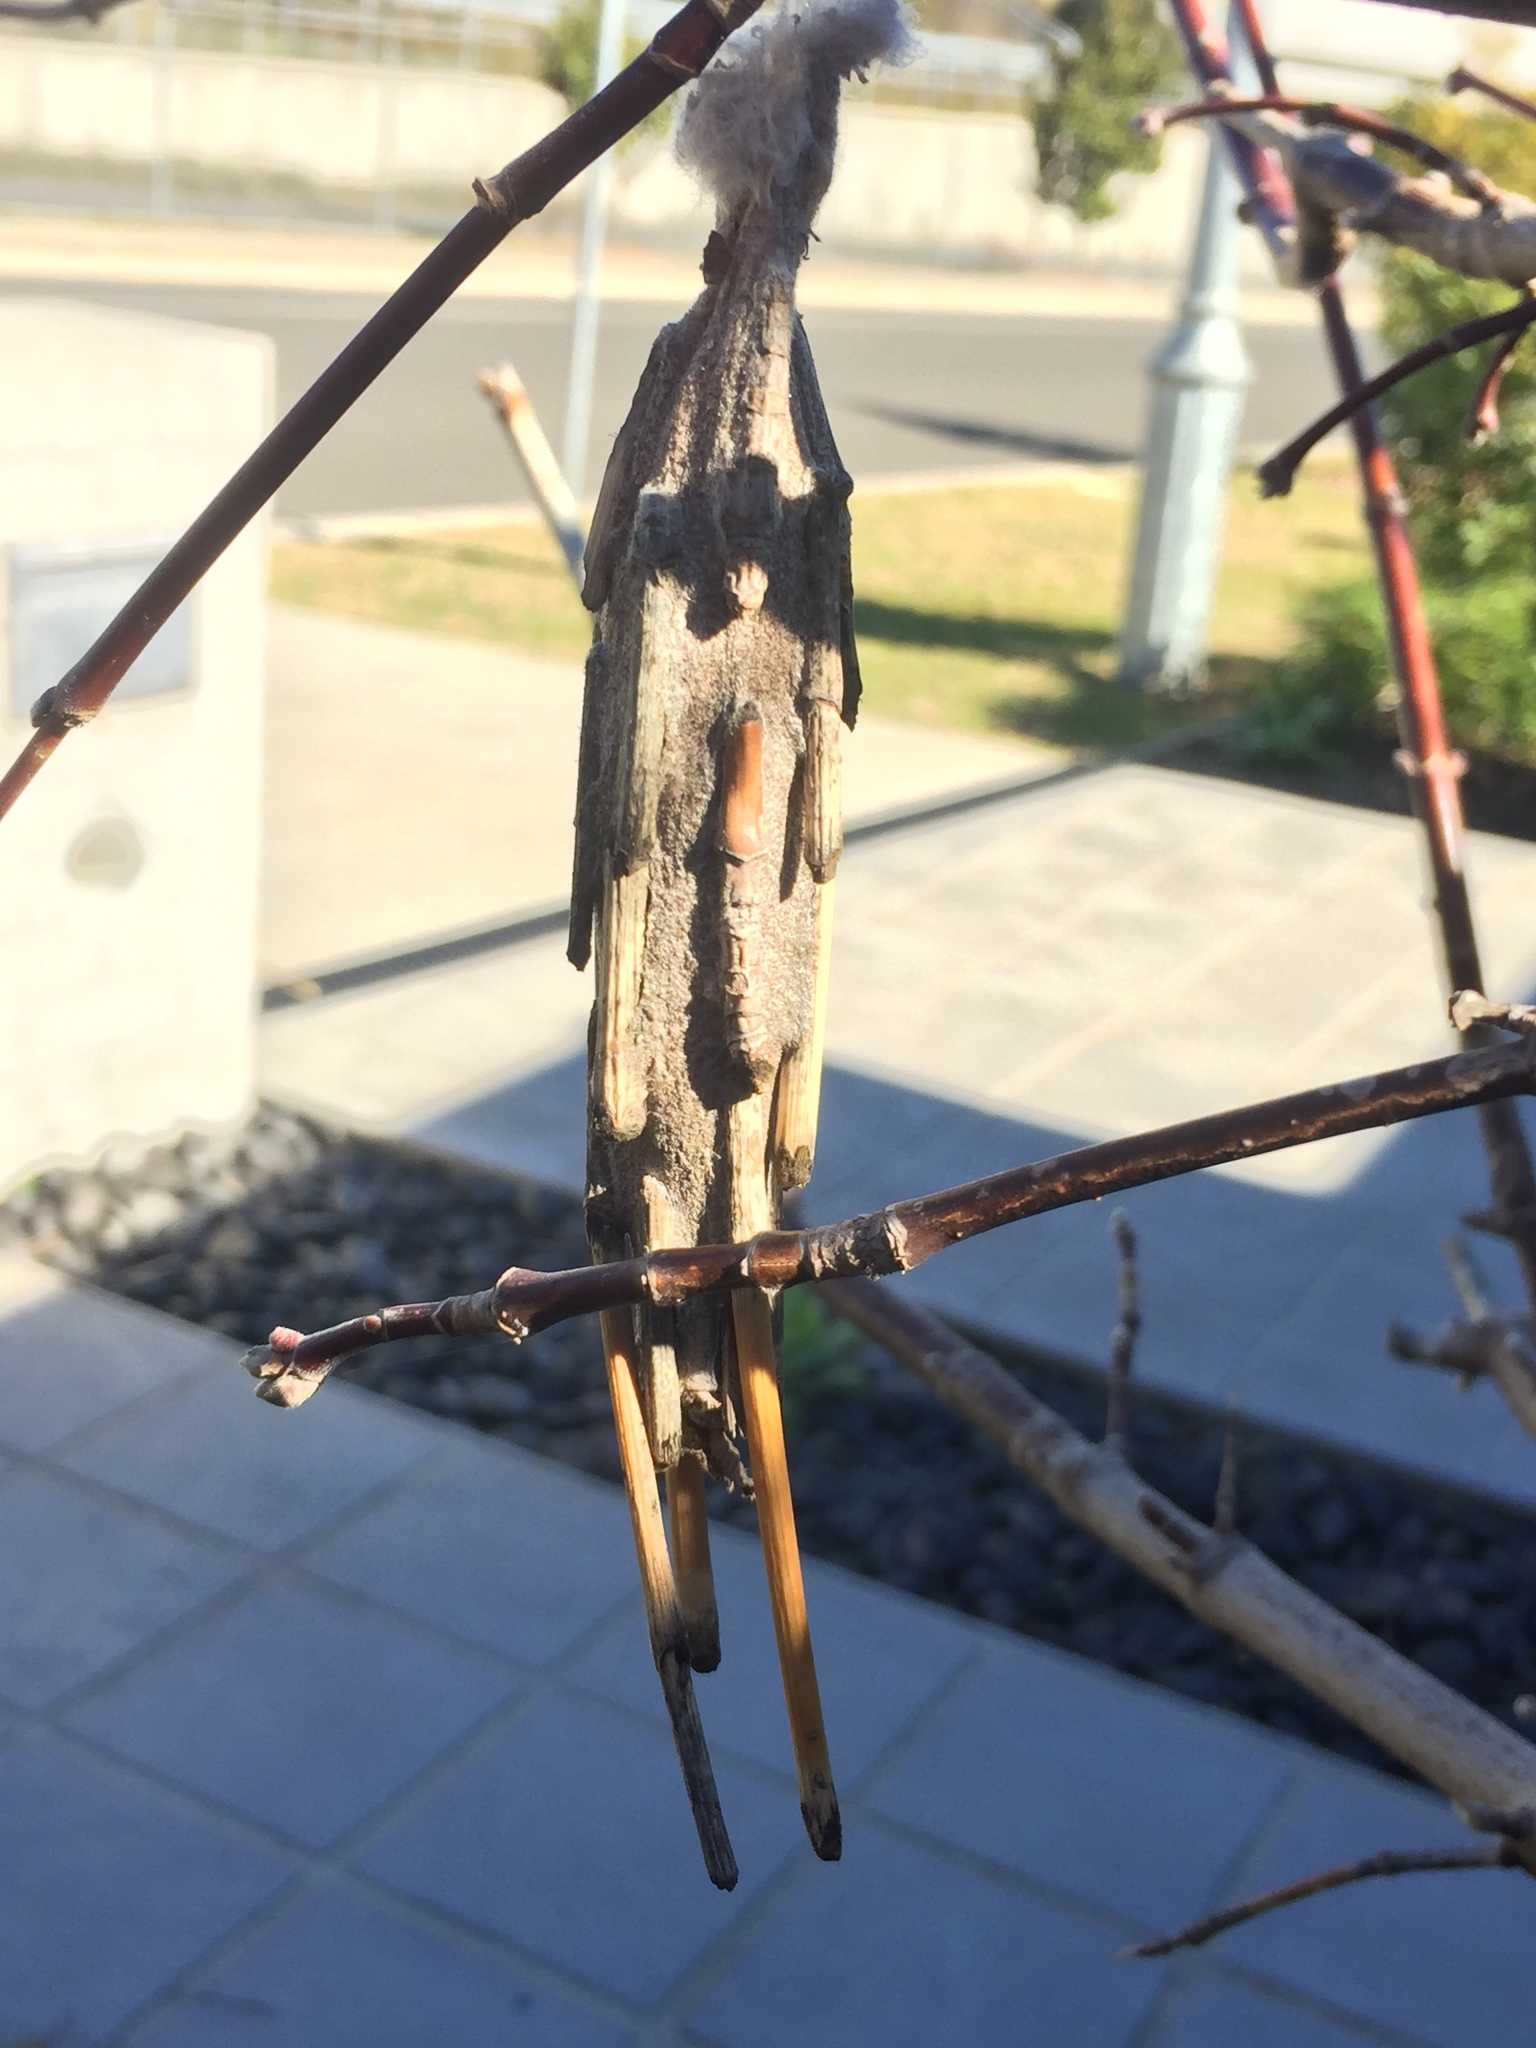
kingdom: Animalia
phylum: Arthropoda
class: Insecta
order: Lepidoptera
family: Psychidae
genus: Metura
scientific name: Metura elongatus
